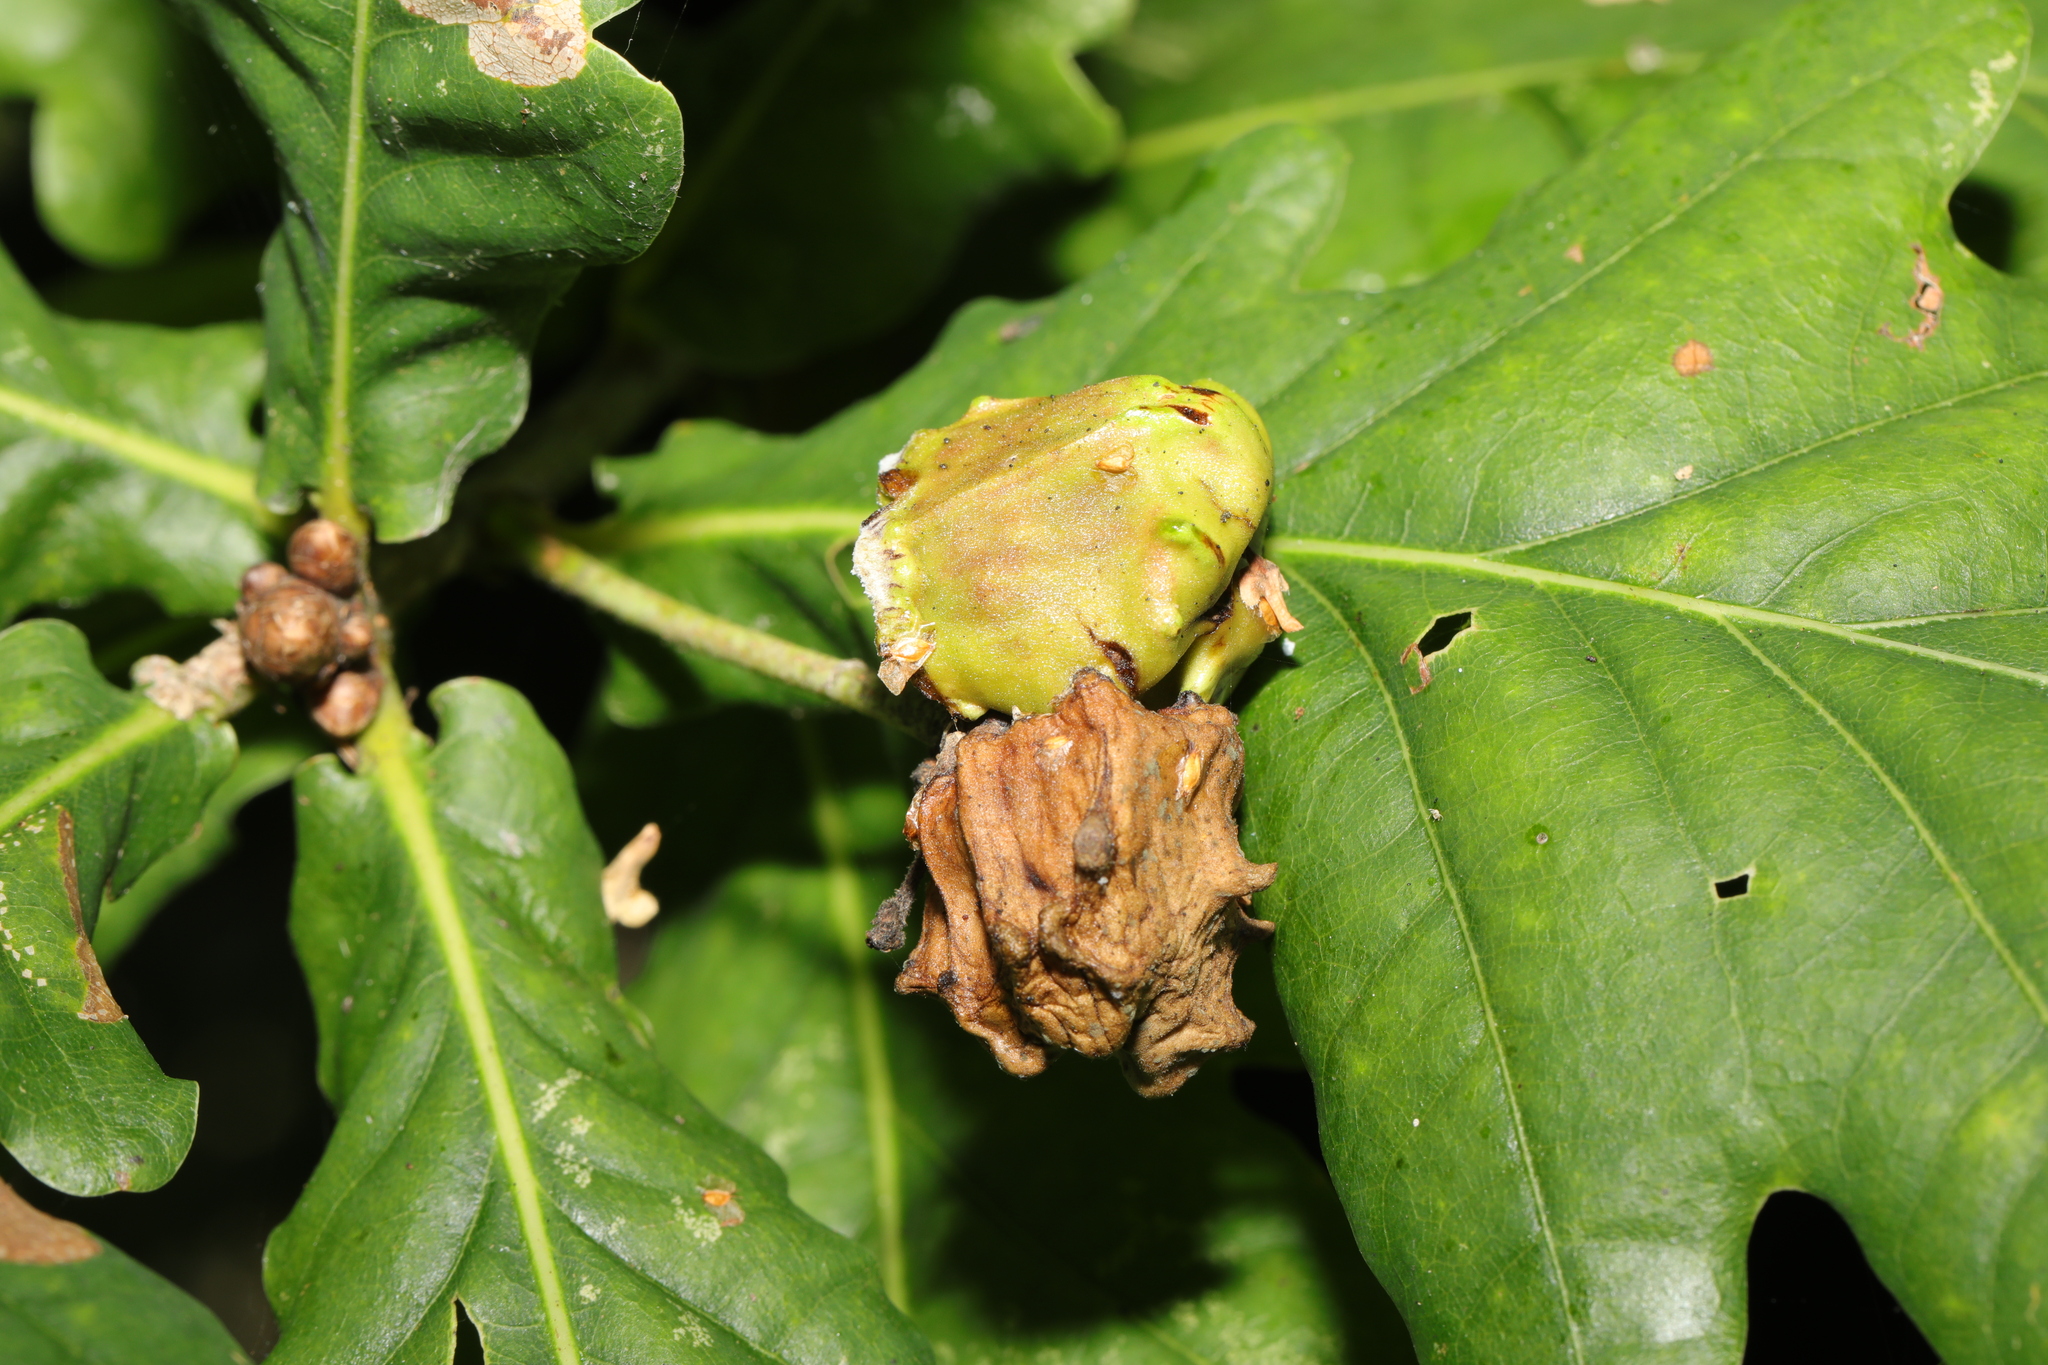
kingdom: Animalia
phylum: Arthropoda
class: Insecta
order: Hymenoptera
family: Cynipidae
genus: Andricus
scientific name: Andricus quercuscalicis
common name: Knopper gall
